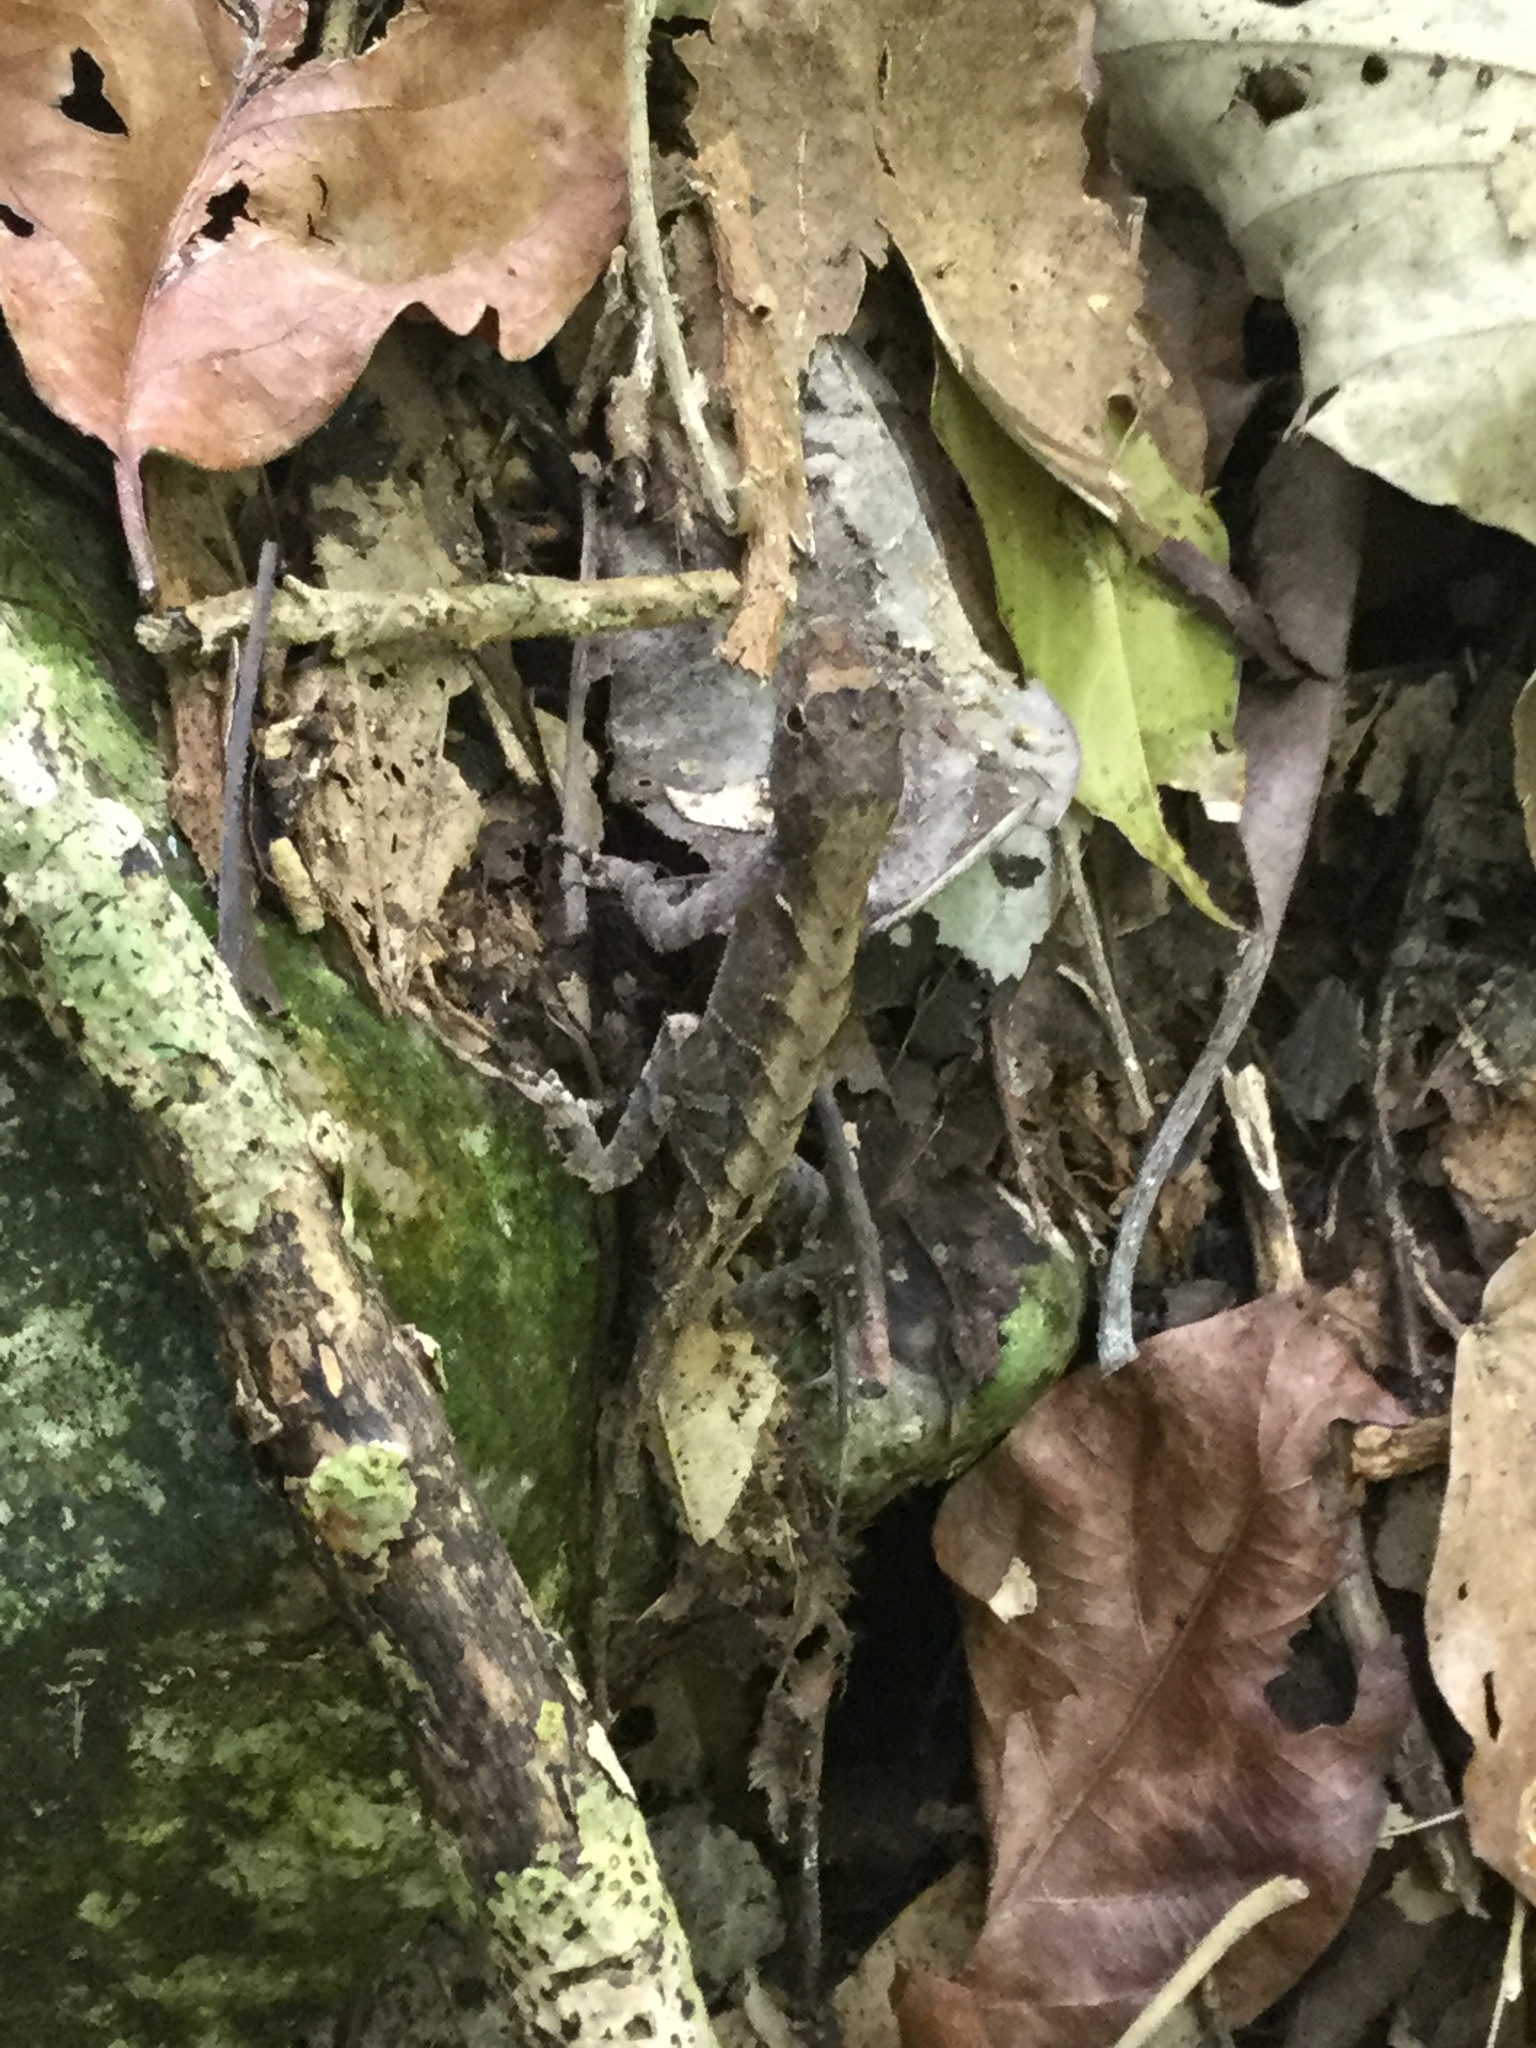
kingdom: Animalia
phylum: Chordata
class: Squamata
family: Dactyloidae
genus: Anolis
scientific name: Anolis tropidonotus
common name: Greater scaly anole
